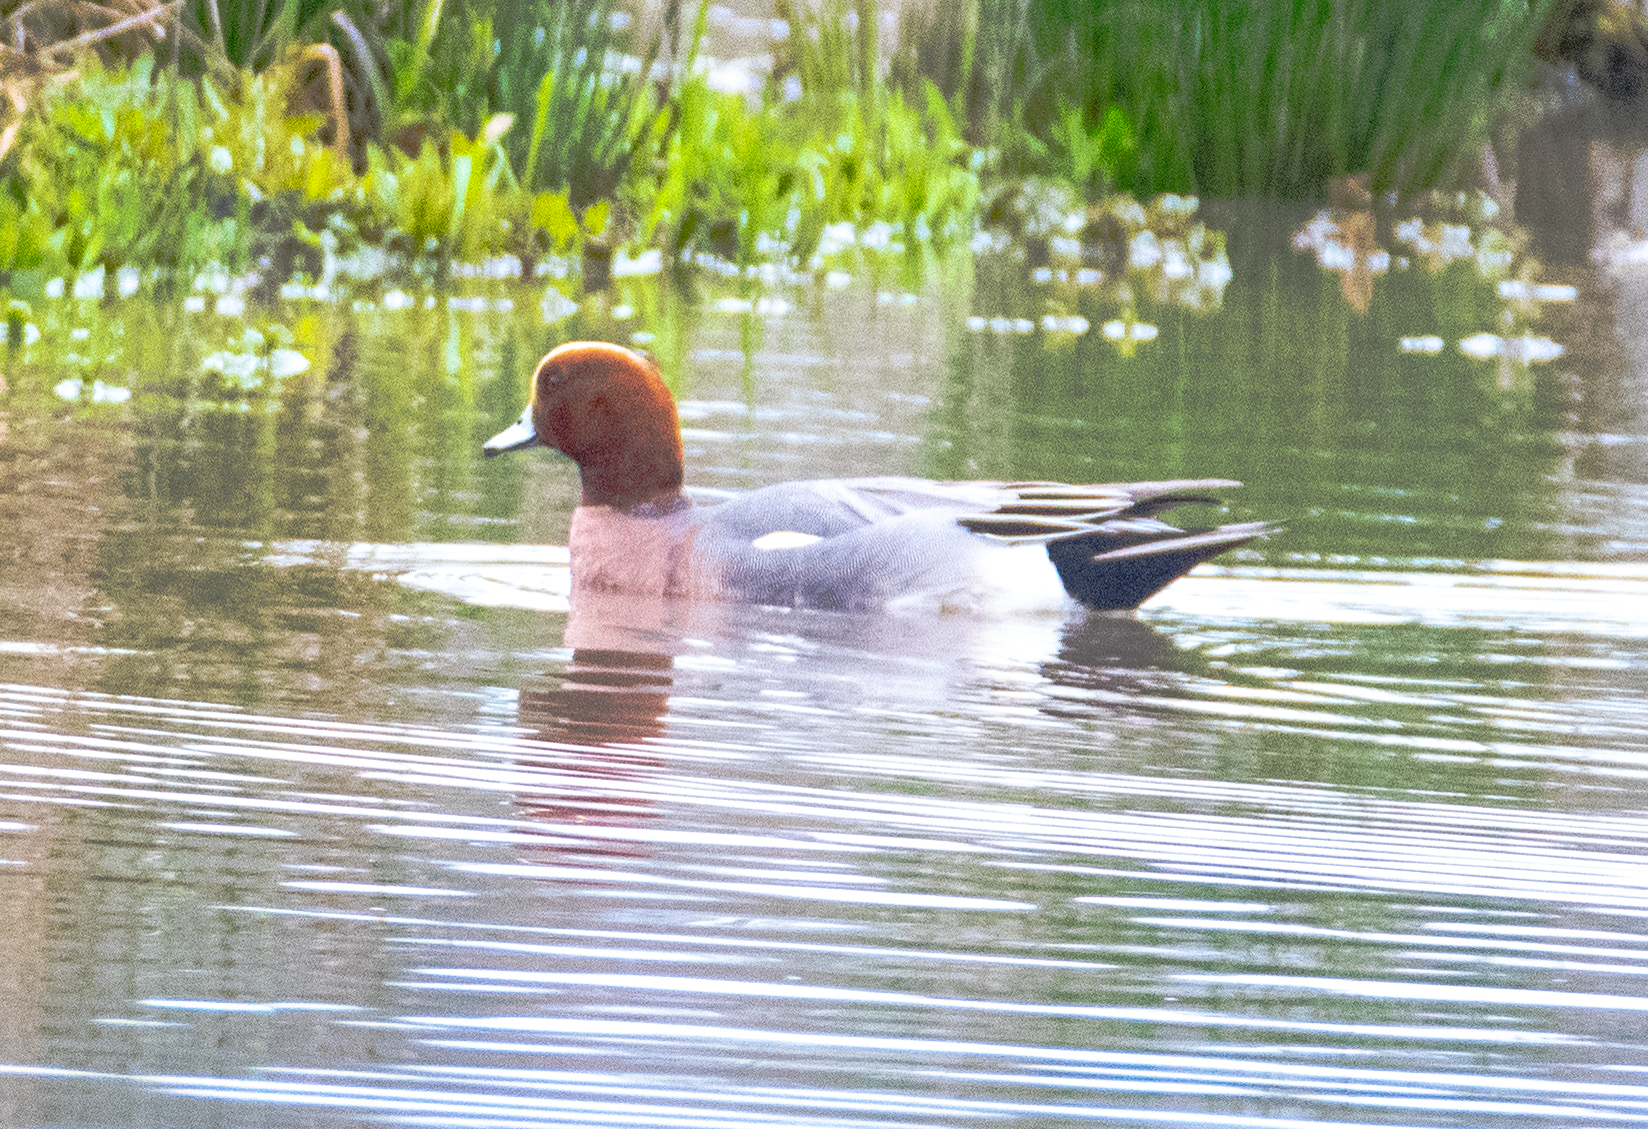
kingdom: Animalia
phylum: Chordata
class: Aves
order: Anseriformes
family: Anatidae
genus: Mareca
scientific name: Mareca penelope
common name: Eurasian wigeon
